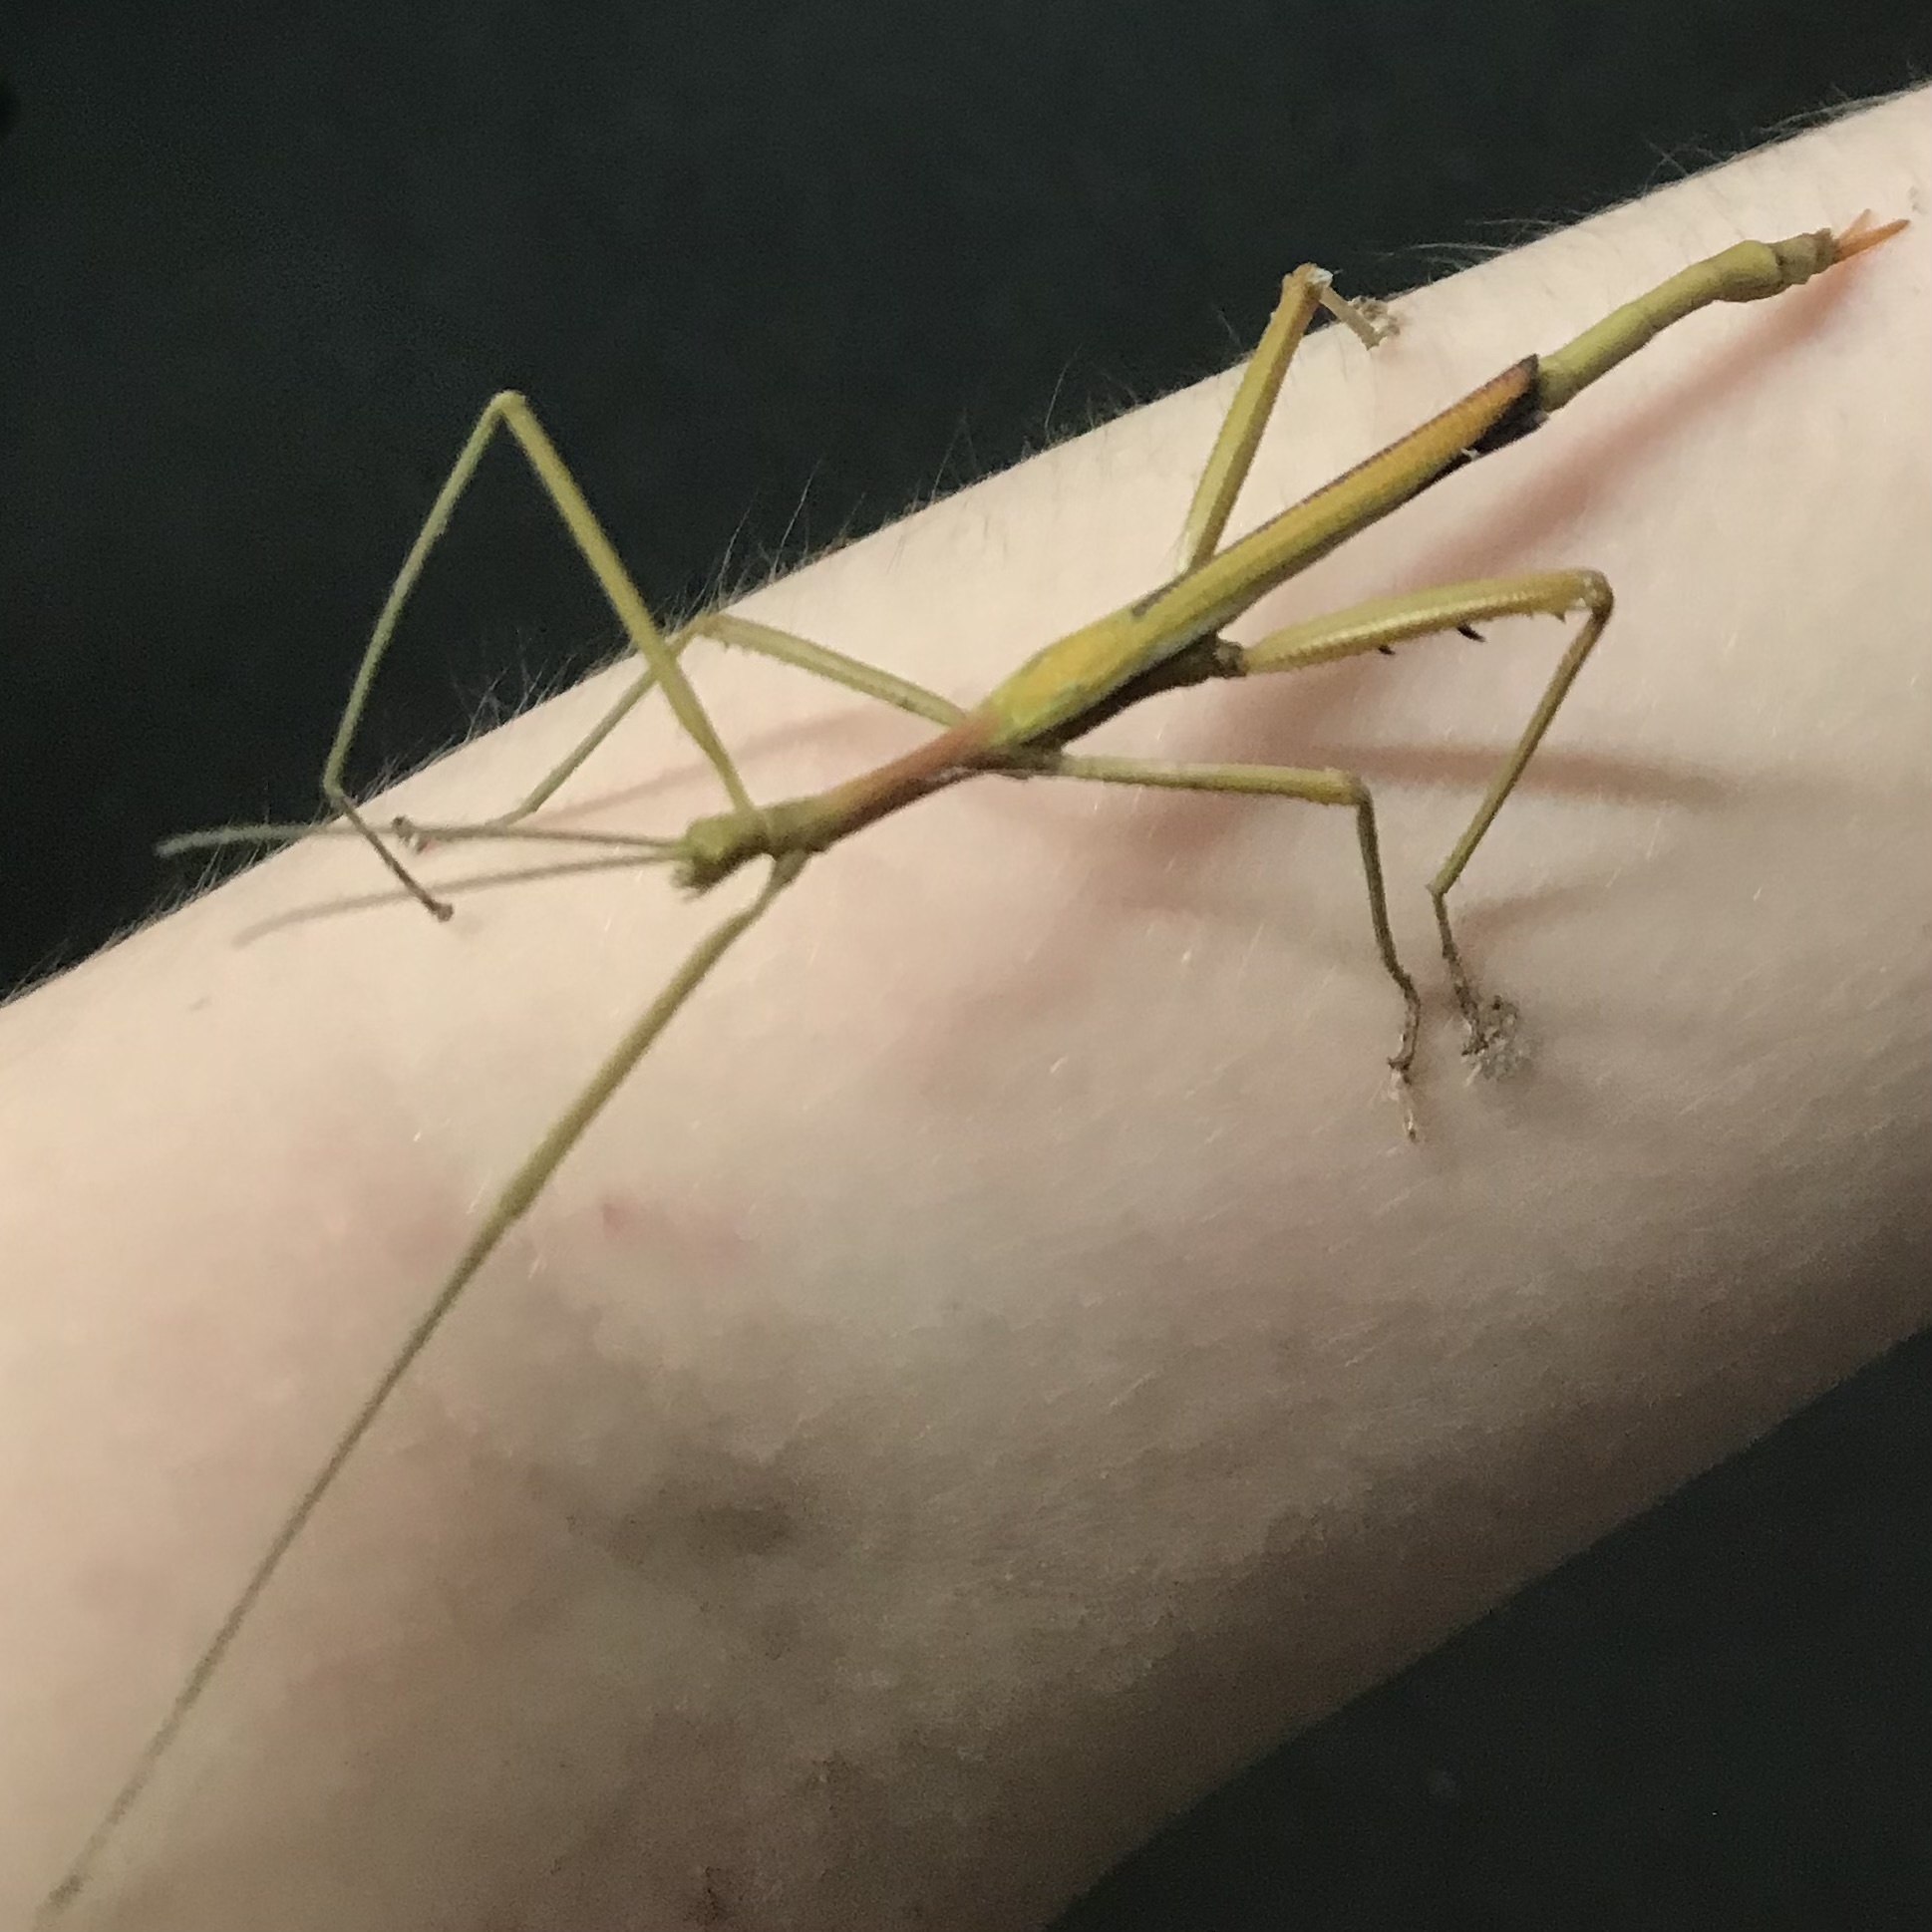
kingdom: Animalia
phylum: Arthropoda
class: Insecta
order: Phasmida
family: Phasmatidae
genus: Didymuria
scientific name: Didymuria violescens
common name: Spur-legged stick-insect
